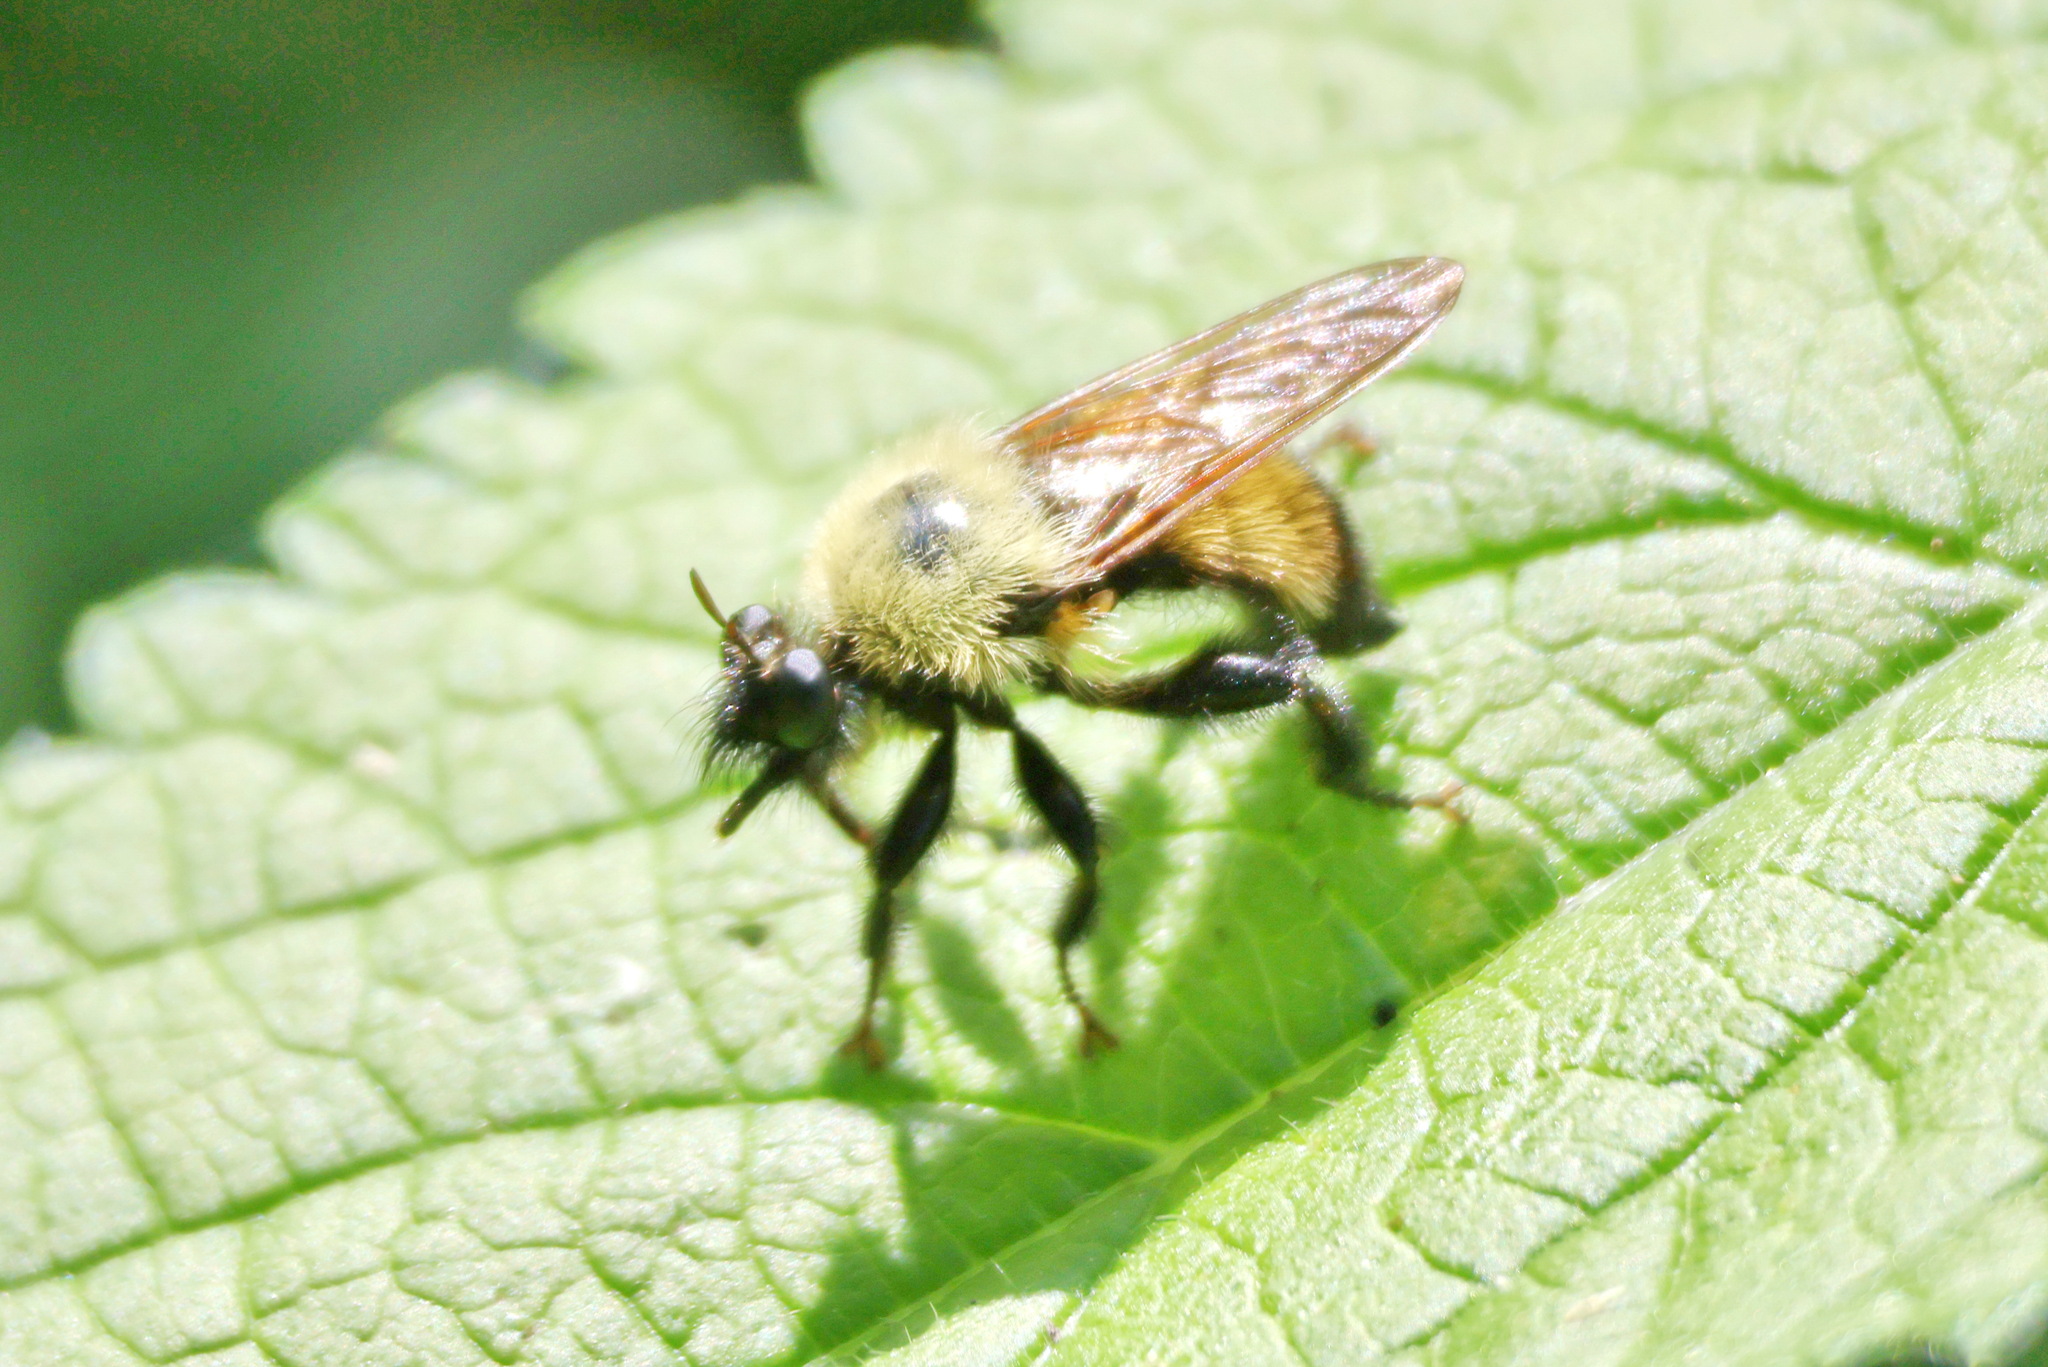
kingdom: Animalia
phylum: Arthropoda
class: Insecta
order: Diptera
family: Asilidae
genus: Laphria
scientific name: Laphria thoracica
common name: Bumble bee mimic robber fly
